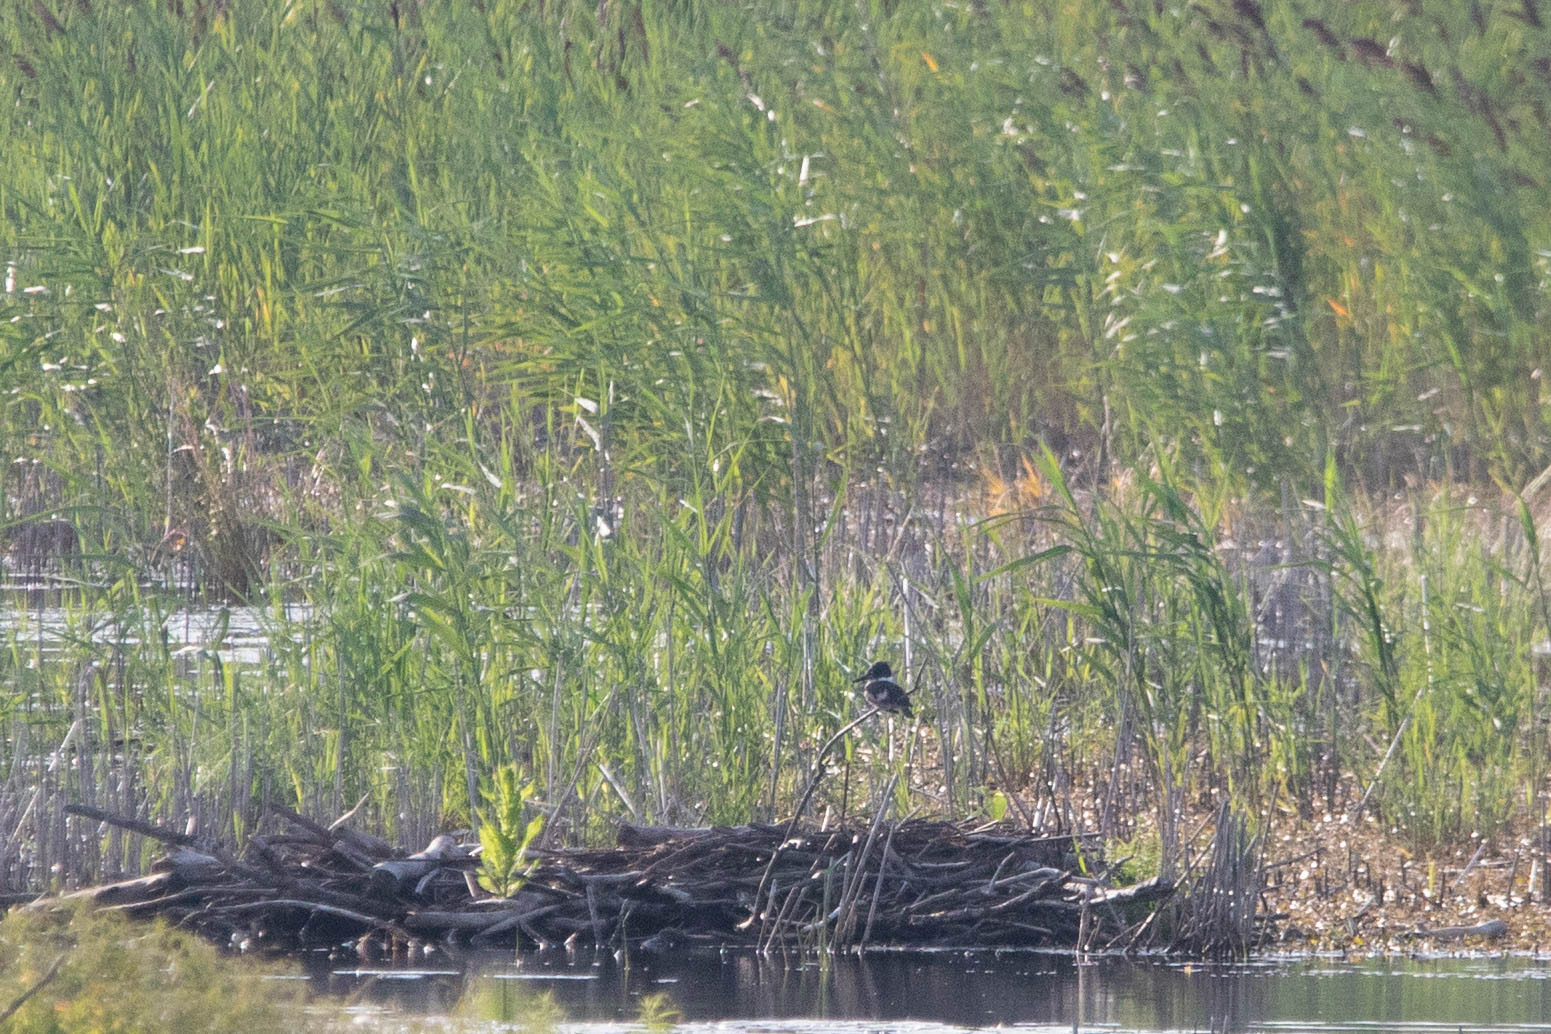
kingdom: Animalia
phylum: Chordata
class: Aves
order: Coraciiformes
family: Alcedinidae
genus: Megaceryle
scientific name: Megaceryle alcyon
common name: Belted kingfisher
